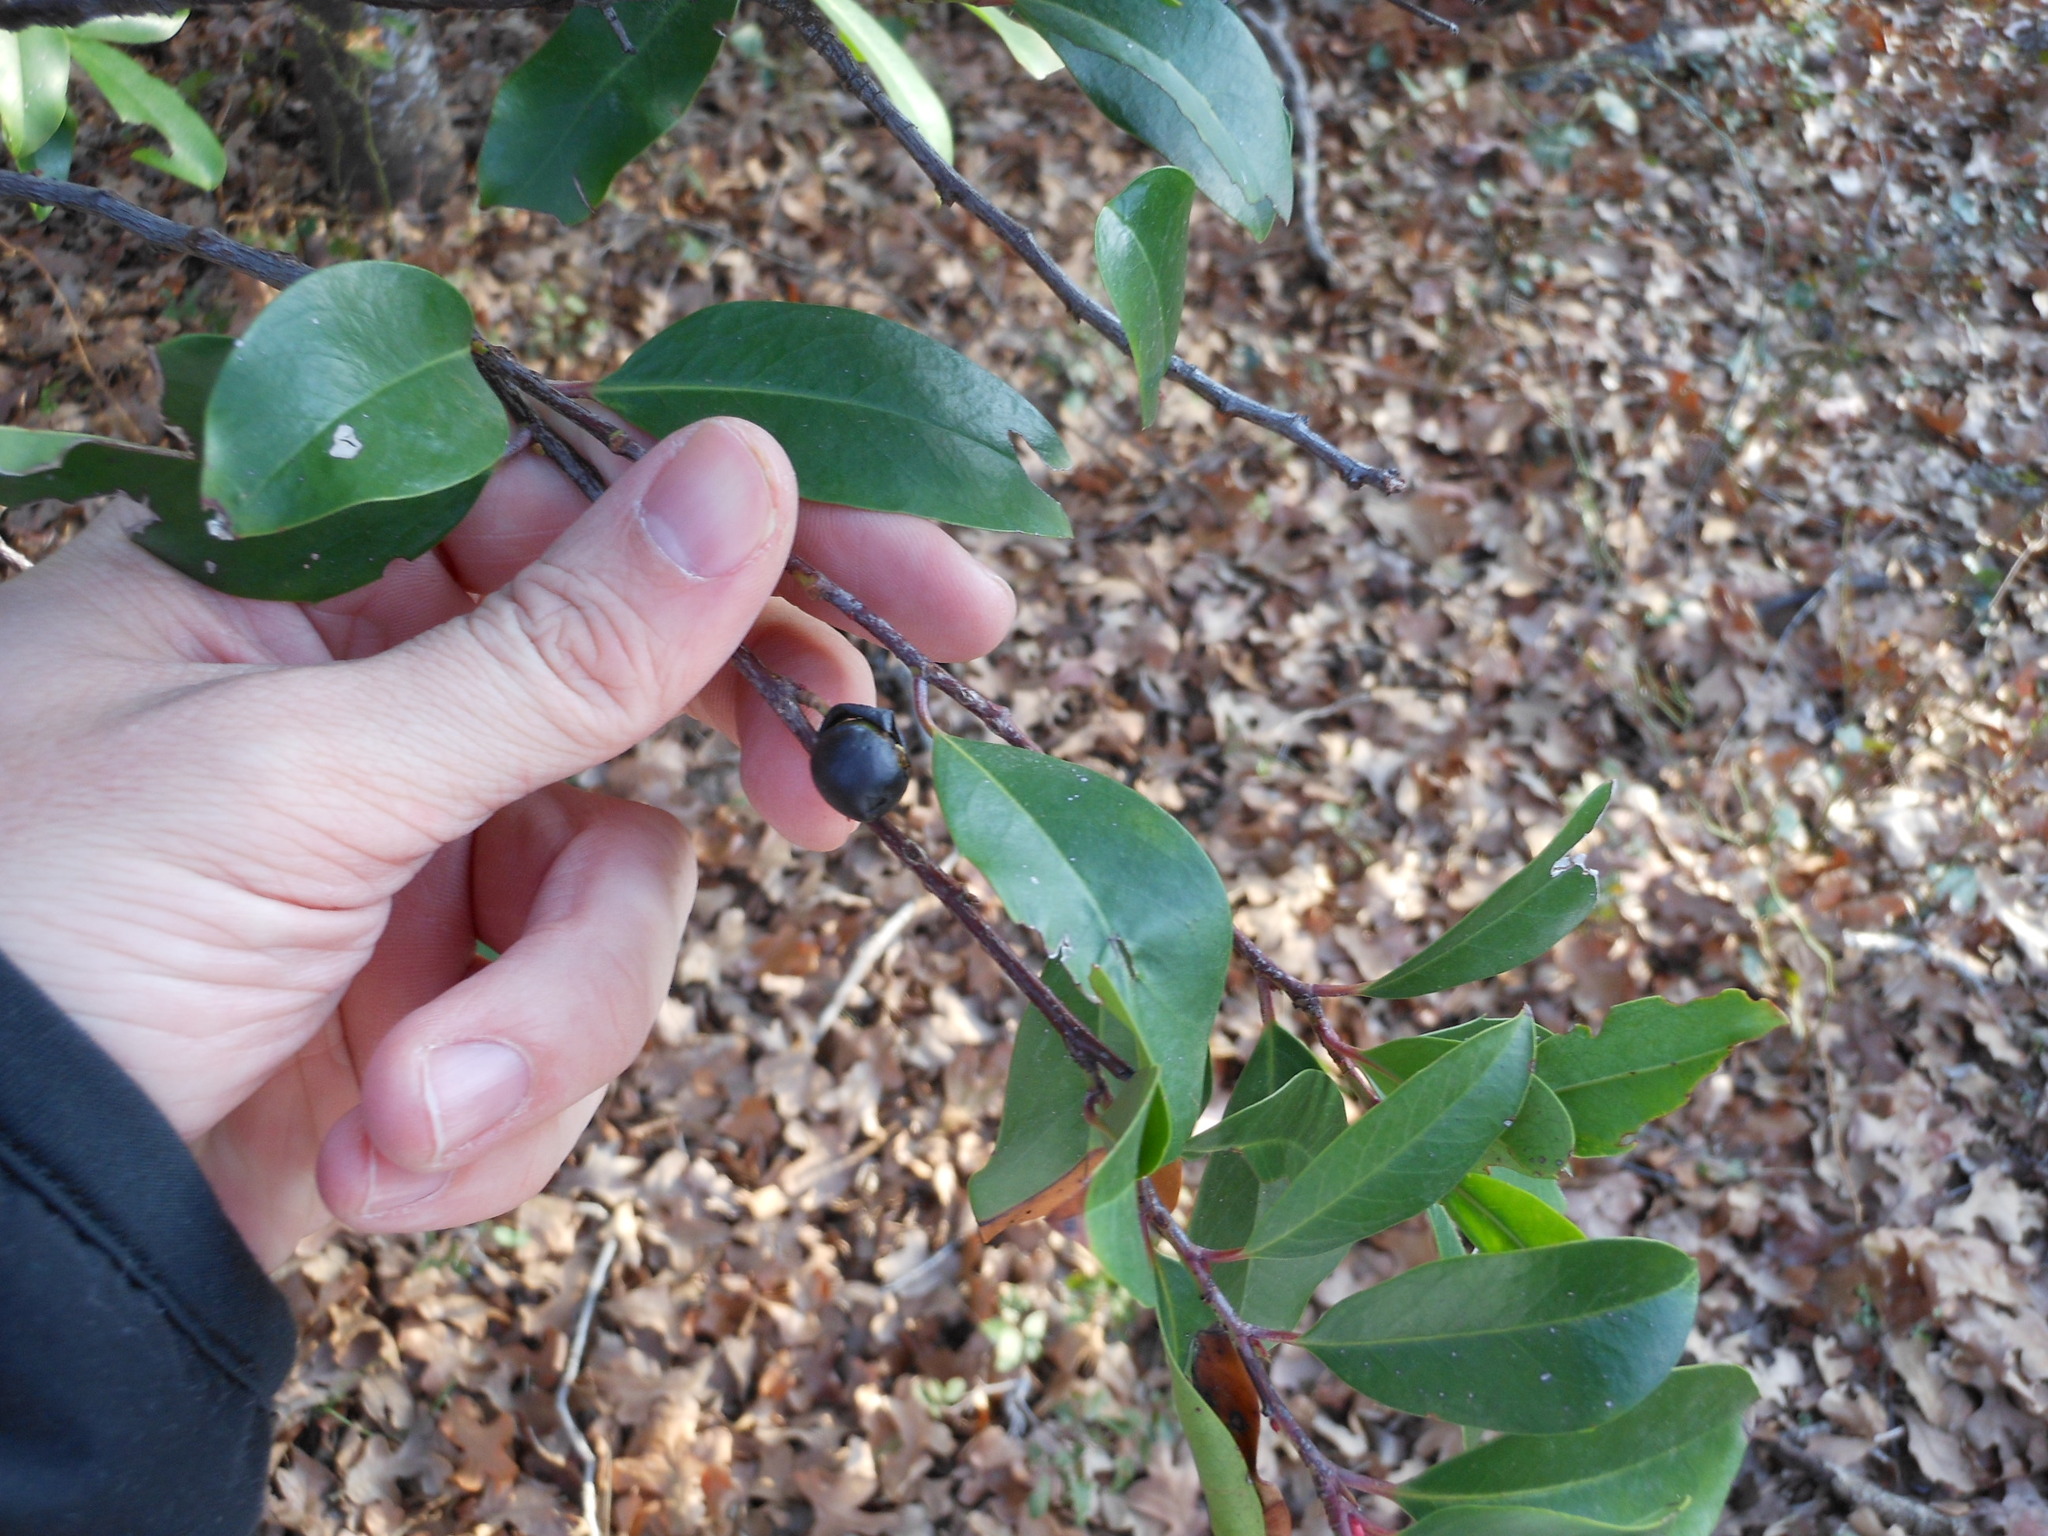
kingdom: Plantae
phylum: Tracheophyta
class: Magnoliopsida
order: Rosales
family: Rosaceae
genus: Prunus
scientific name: Prunus caroliniana
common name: Carolina laurel cherry
